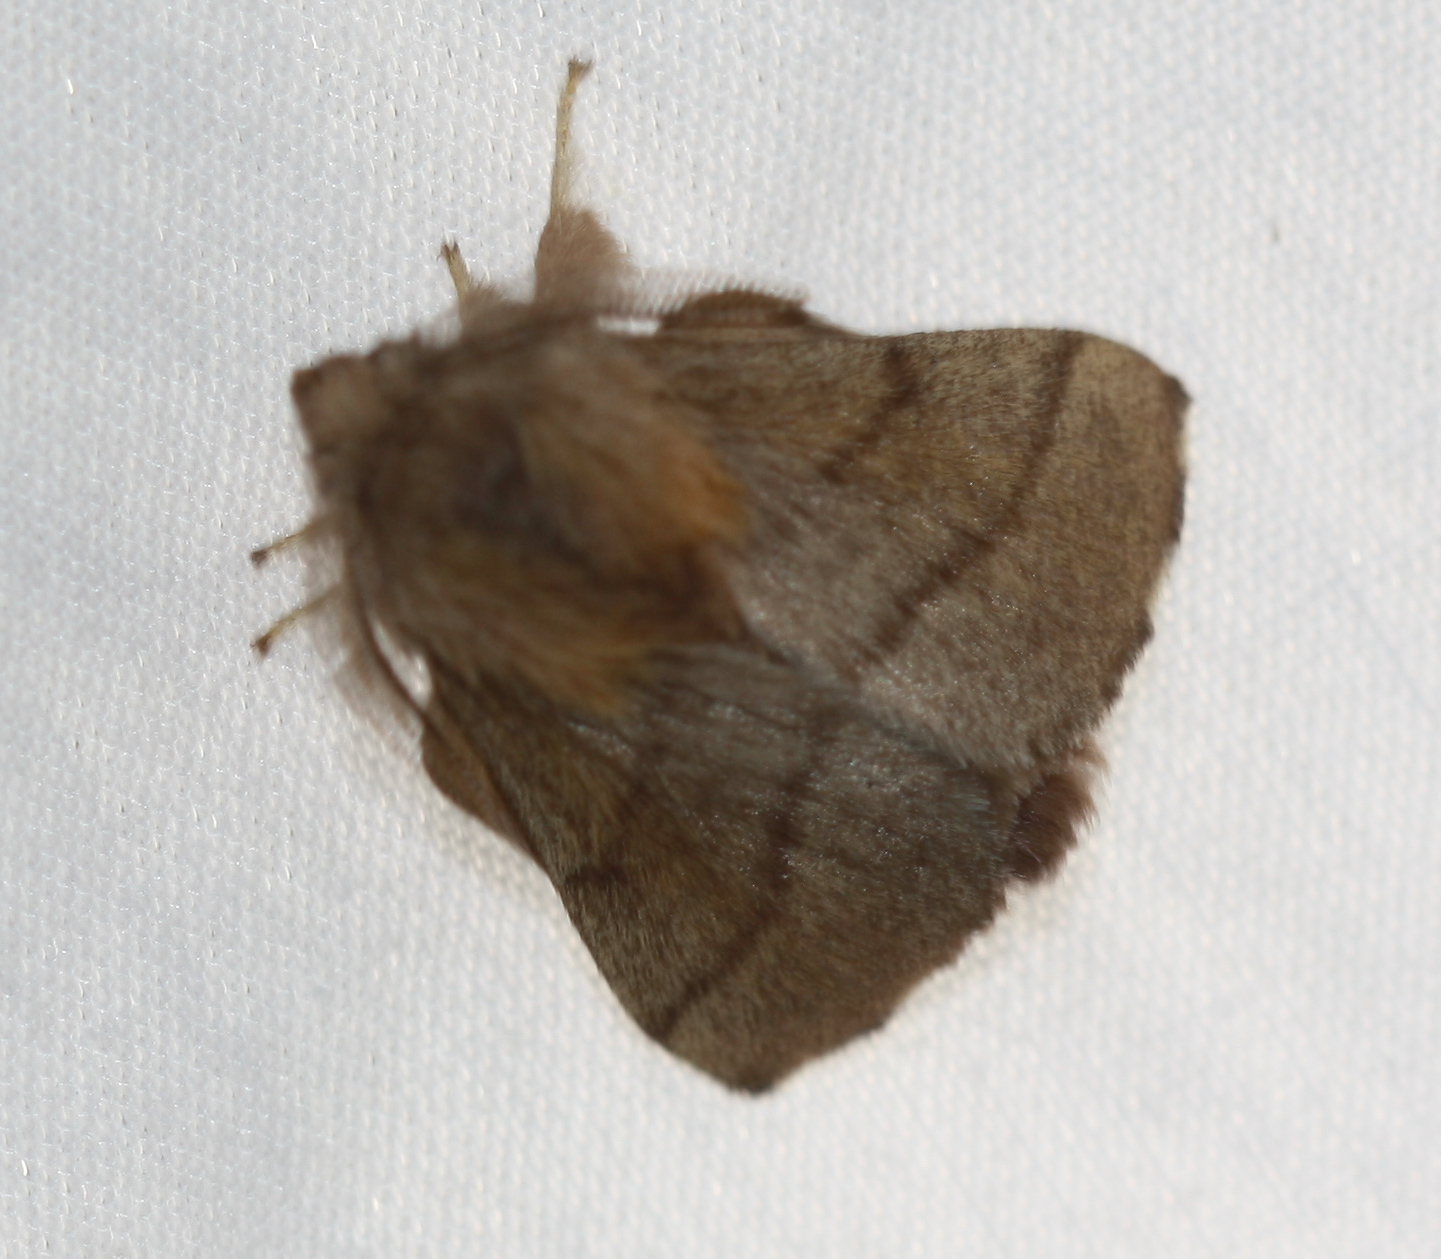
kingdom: Animalia
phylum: Arthropoda
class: Insecta
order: Lepidoptera
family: Lasiocampidae
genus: Malacosoma
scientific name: Malacosoma disstria
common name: Forest tent caterpillar
